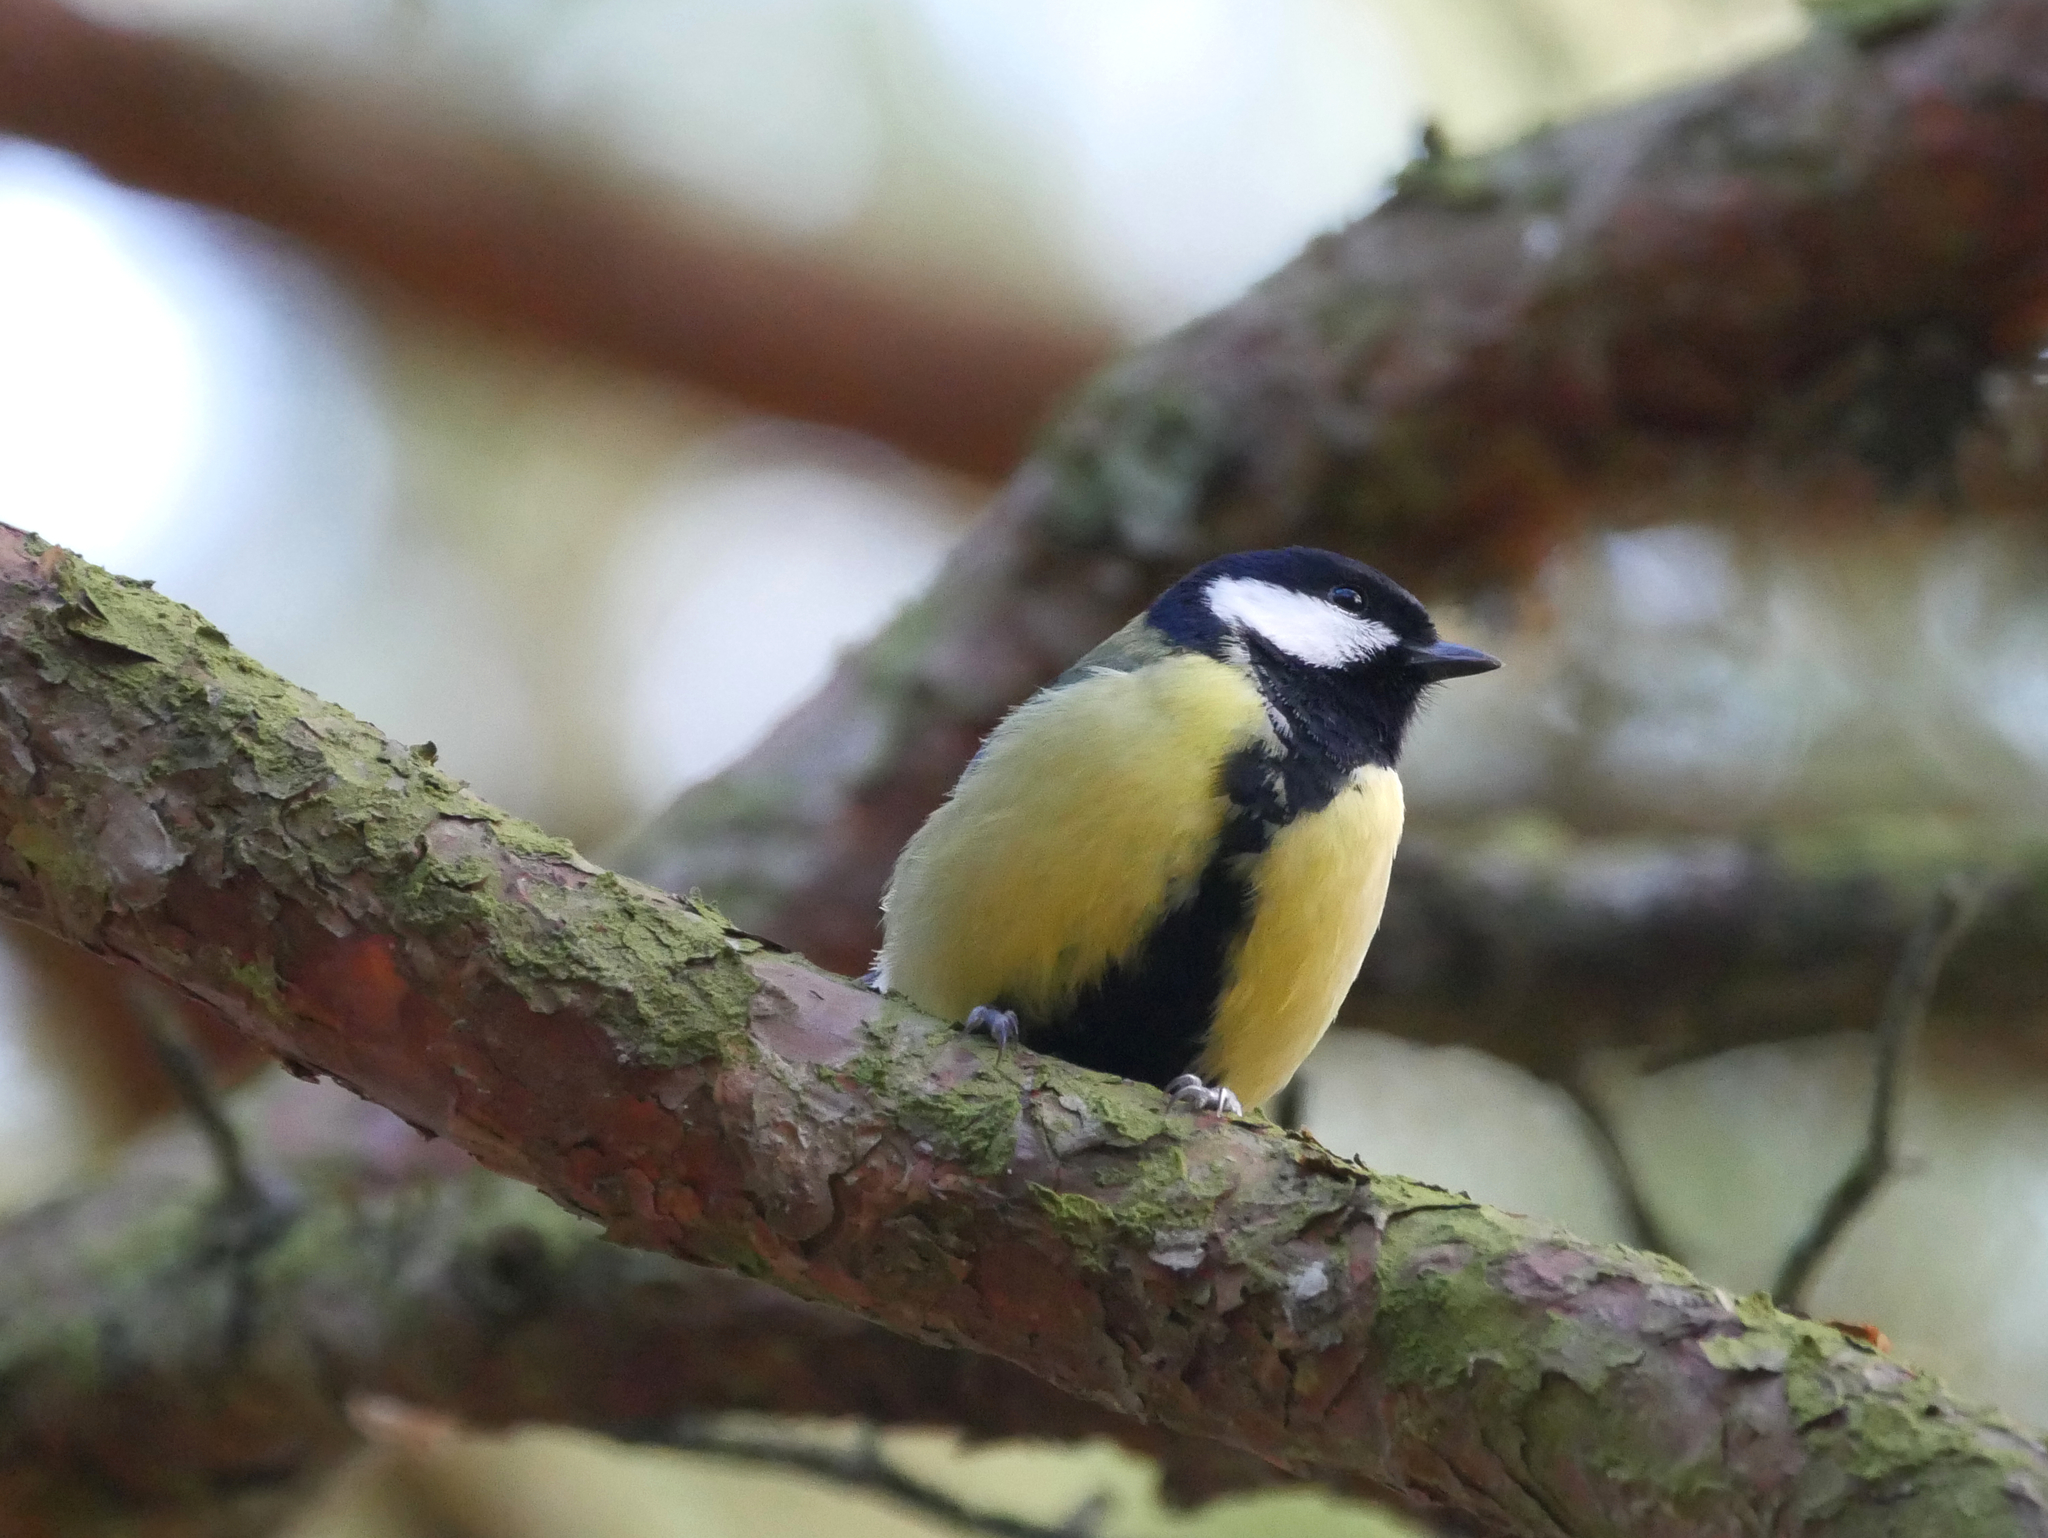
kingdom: Animalia
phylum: Chordata
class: Aves
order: Passeriformes
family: Paridae
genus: Parus
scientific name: Parus major
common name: Great tit
